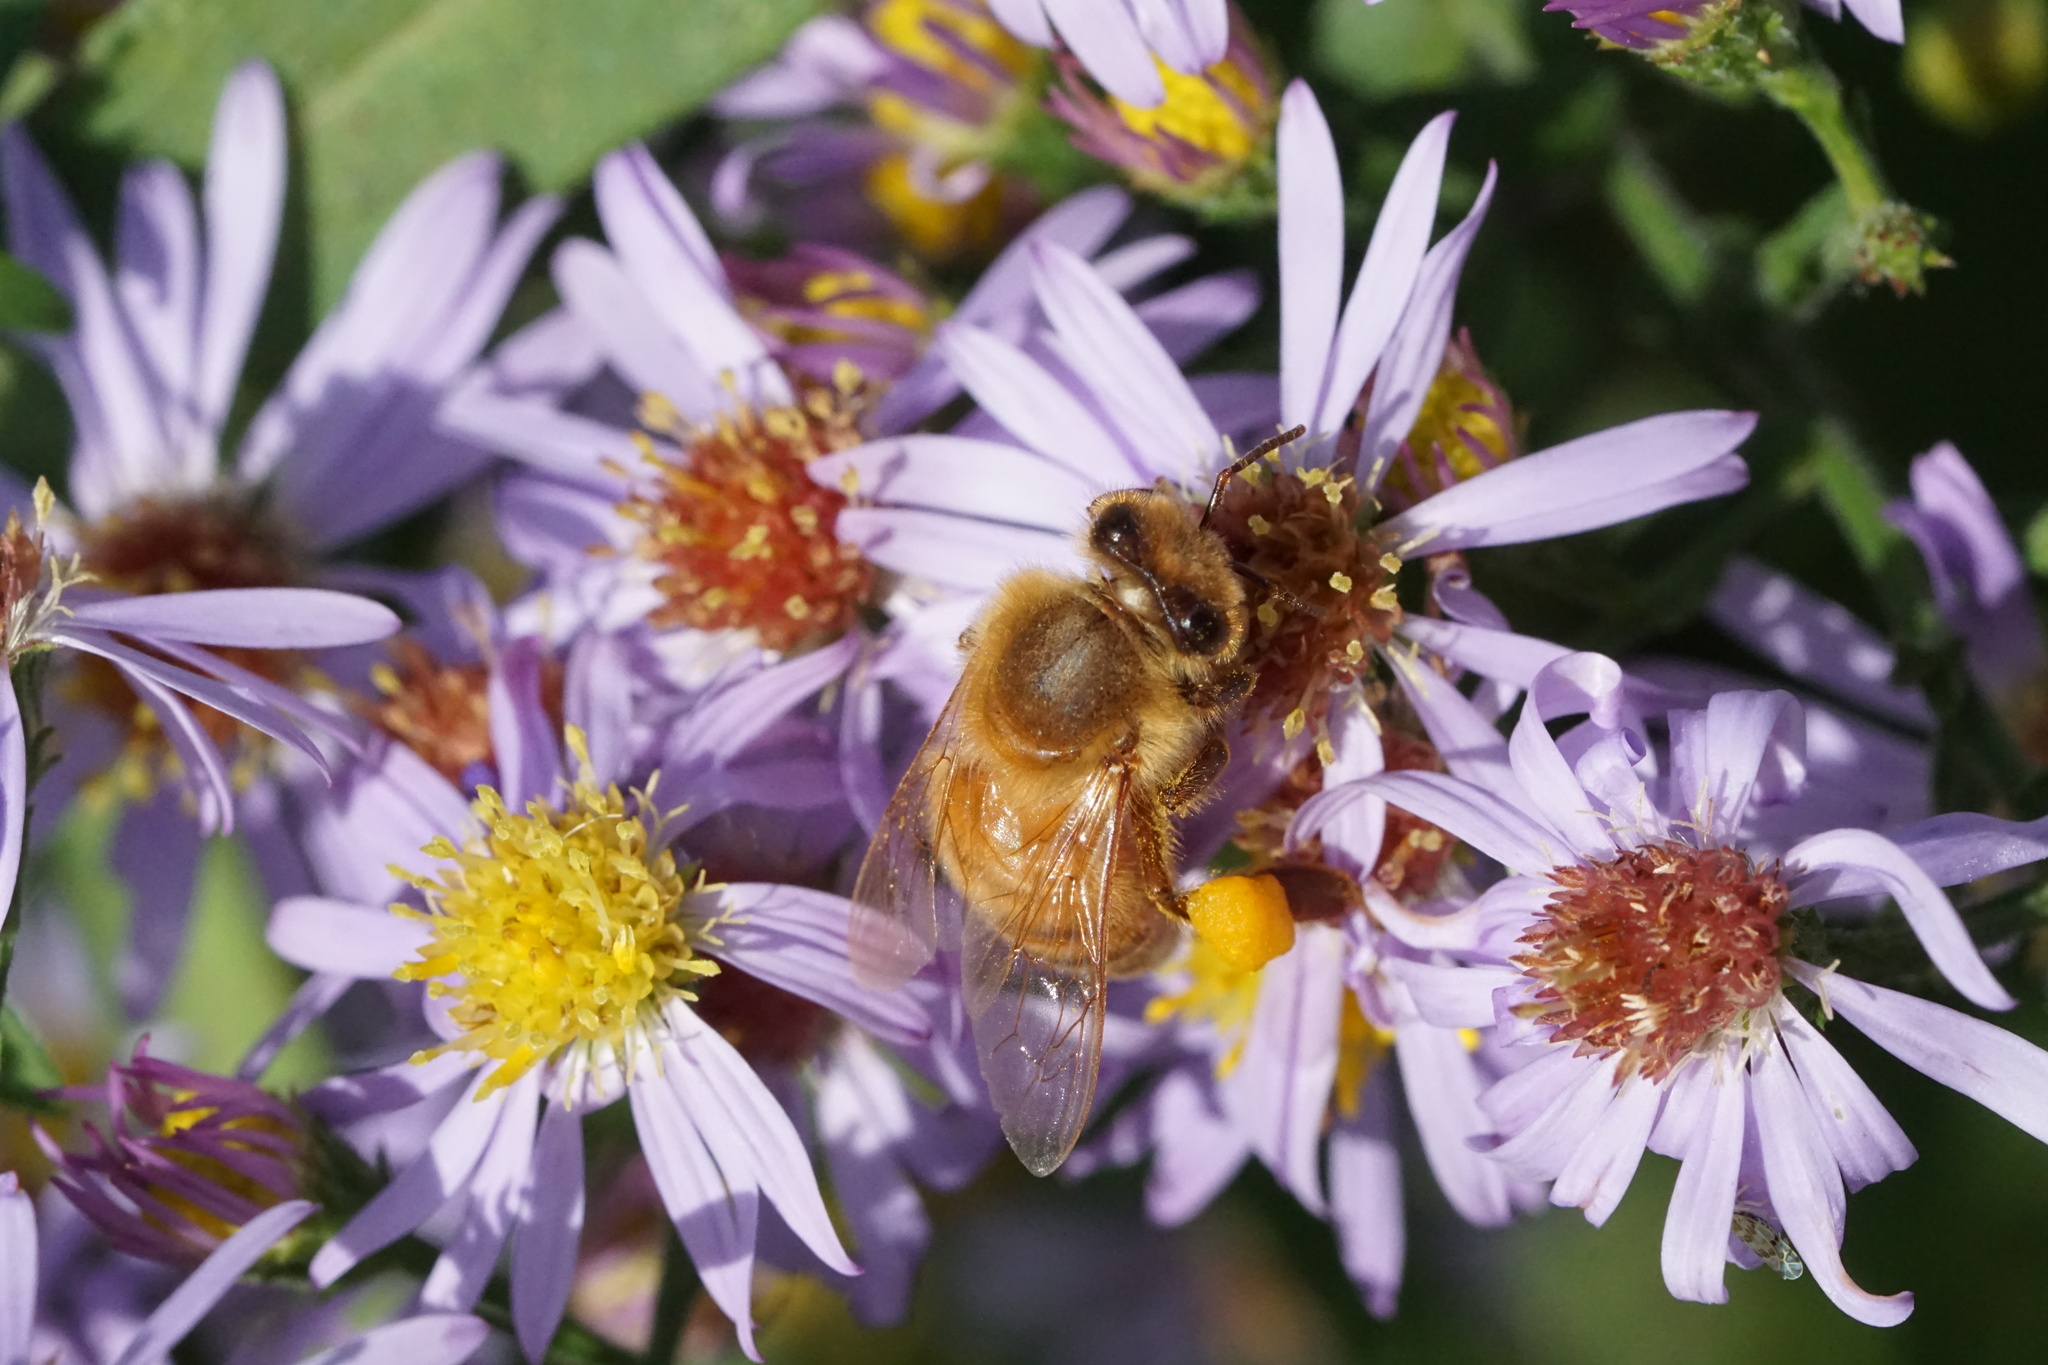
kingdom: Animalia
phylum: Arthropoda
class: Insecta
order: Hymenoptera
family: Apidae
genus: Apis
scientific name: Apis mellifera
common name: Honey bee
